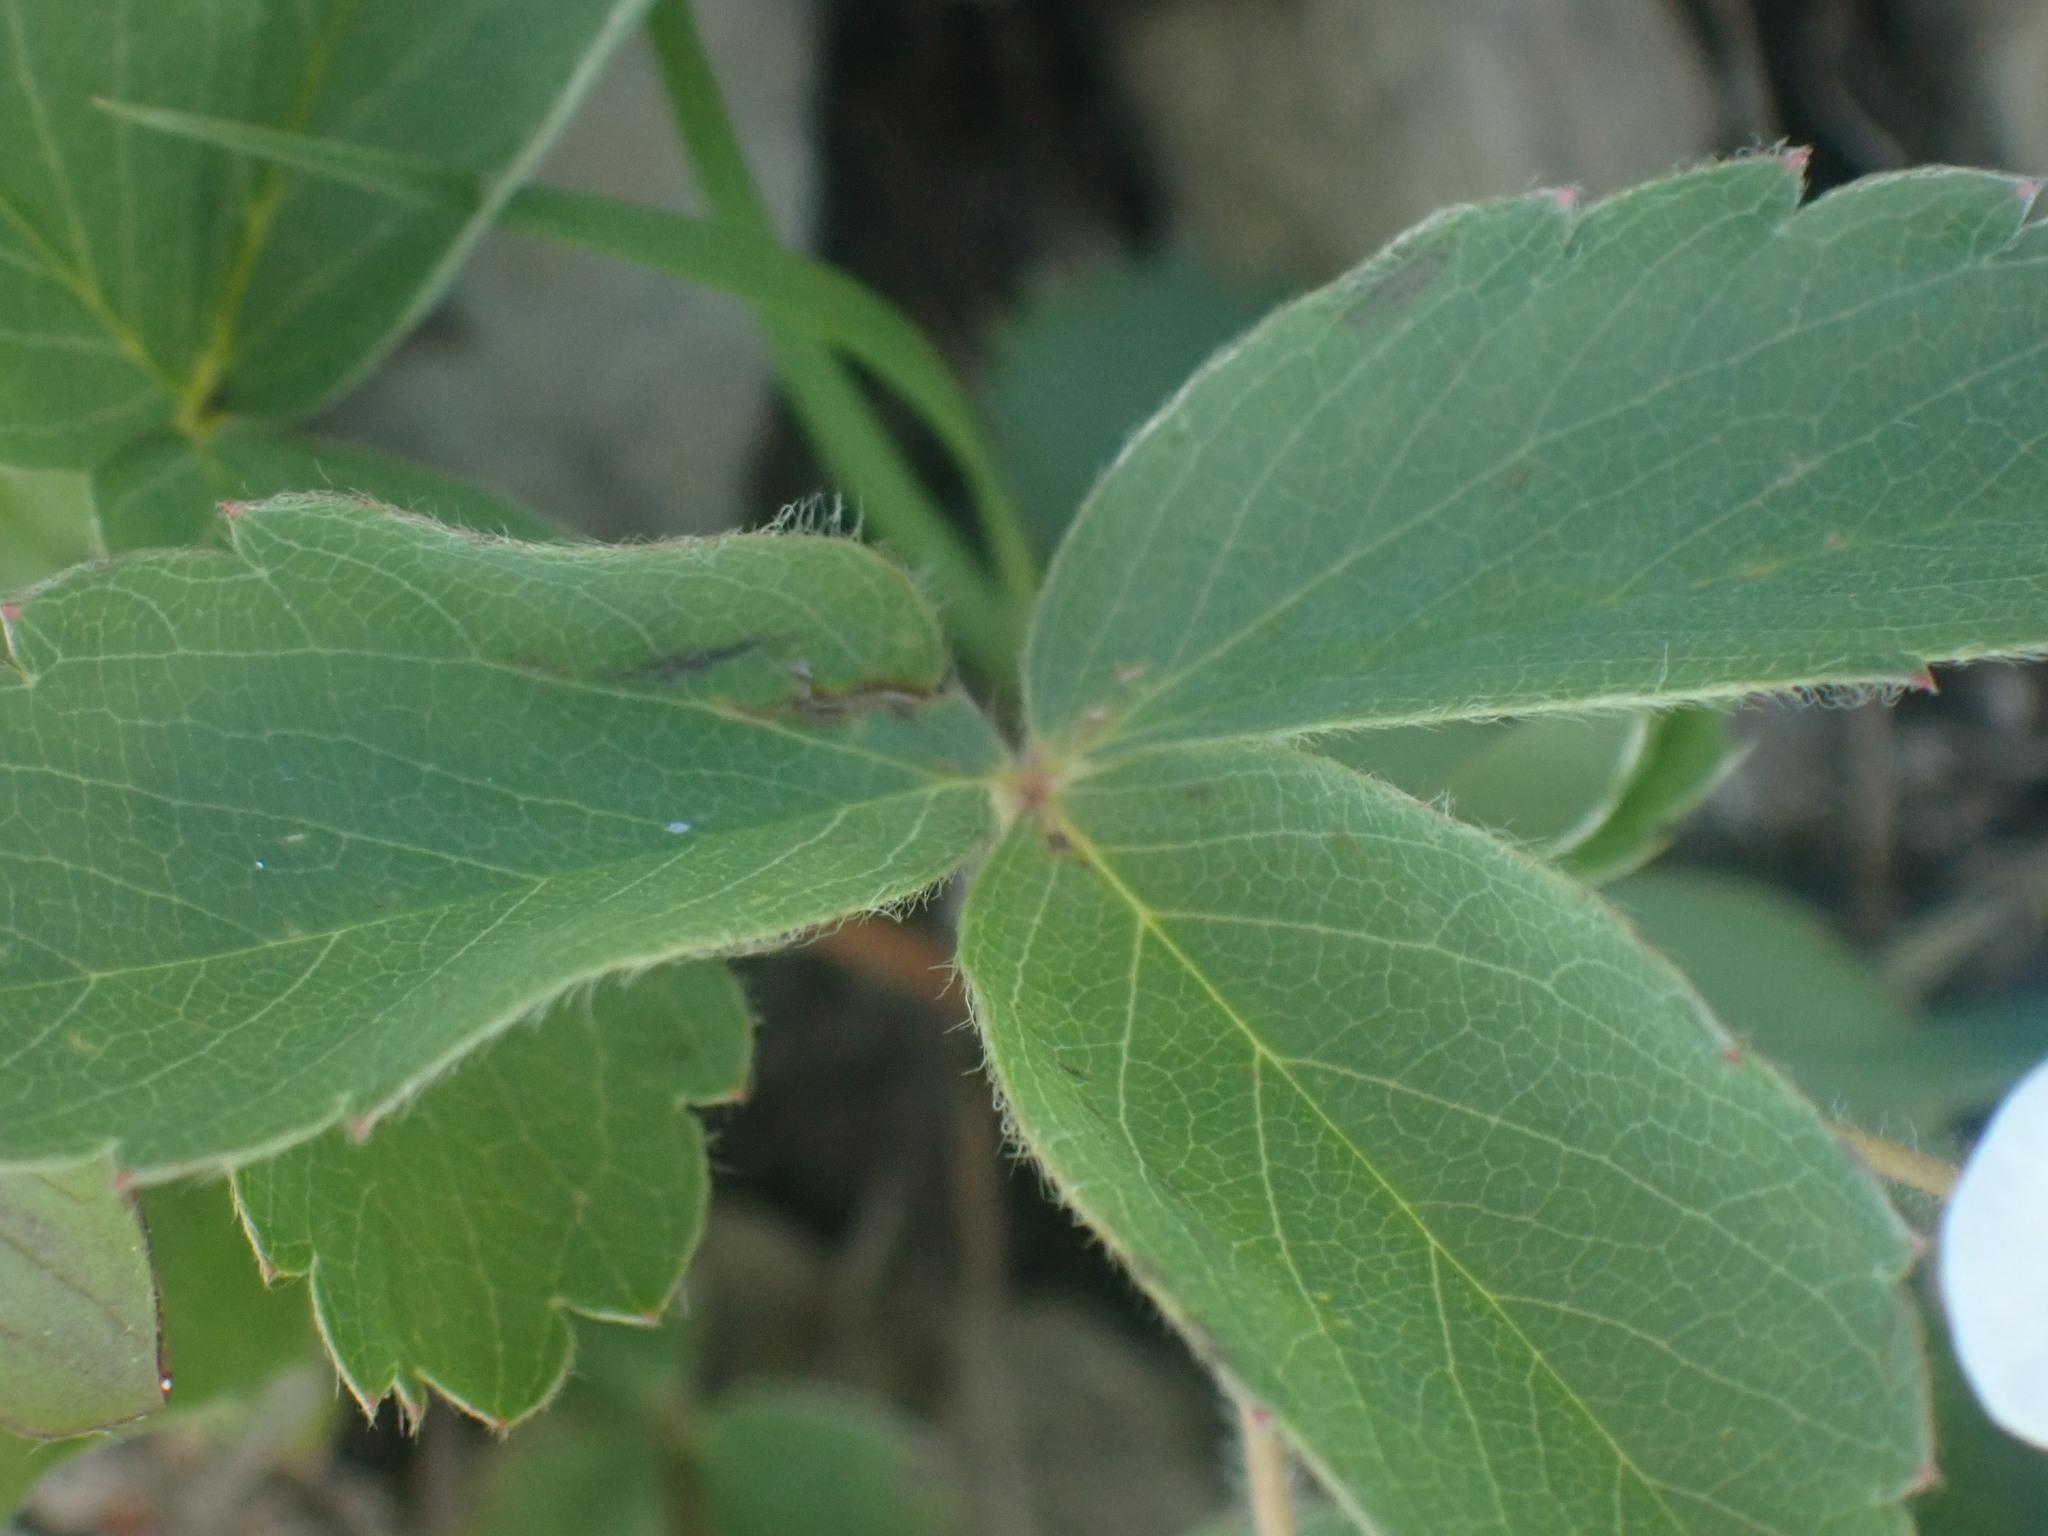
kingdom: Plantae
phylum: Tracheophyta
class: Magnoliopsida
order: Rosales
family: Rosaceae
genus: Fragaria
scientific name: Fragaria virginiana
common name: Thickleaved wild strawberry
